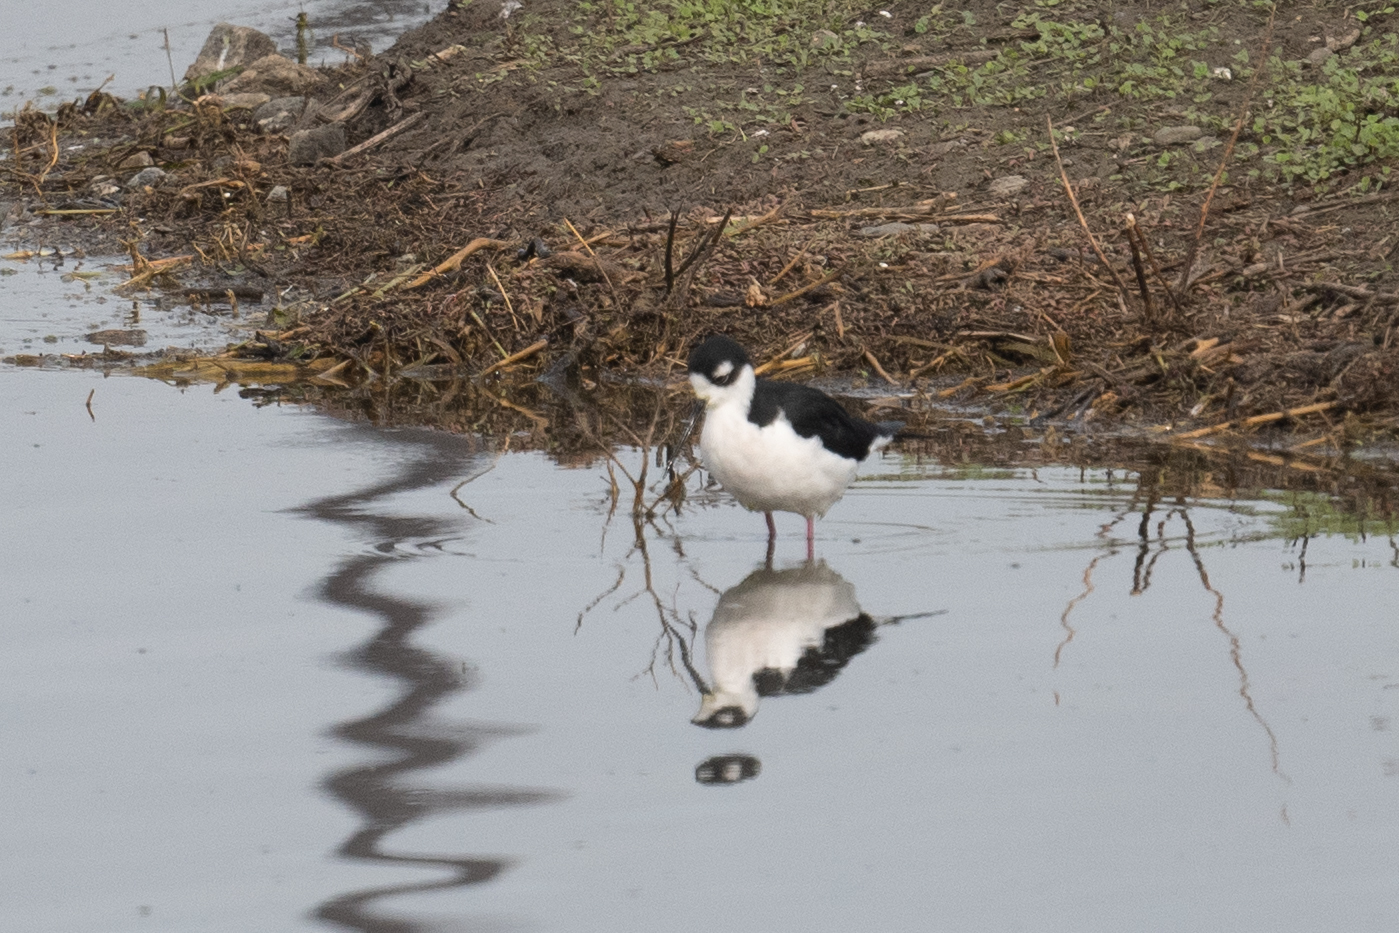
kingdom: Animalia
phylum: Chordata
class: Aves
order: Charadriiformes
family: Recurvirostridae
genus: Himantopus
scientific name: Himantopus mexicanus
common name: Black-necked stilt
